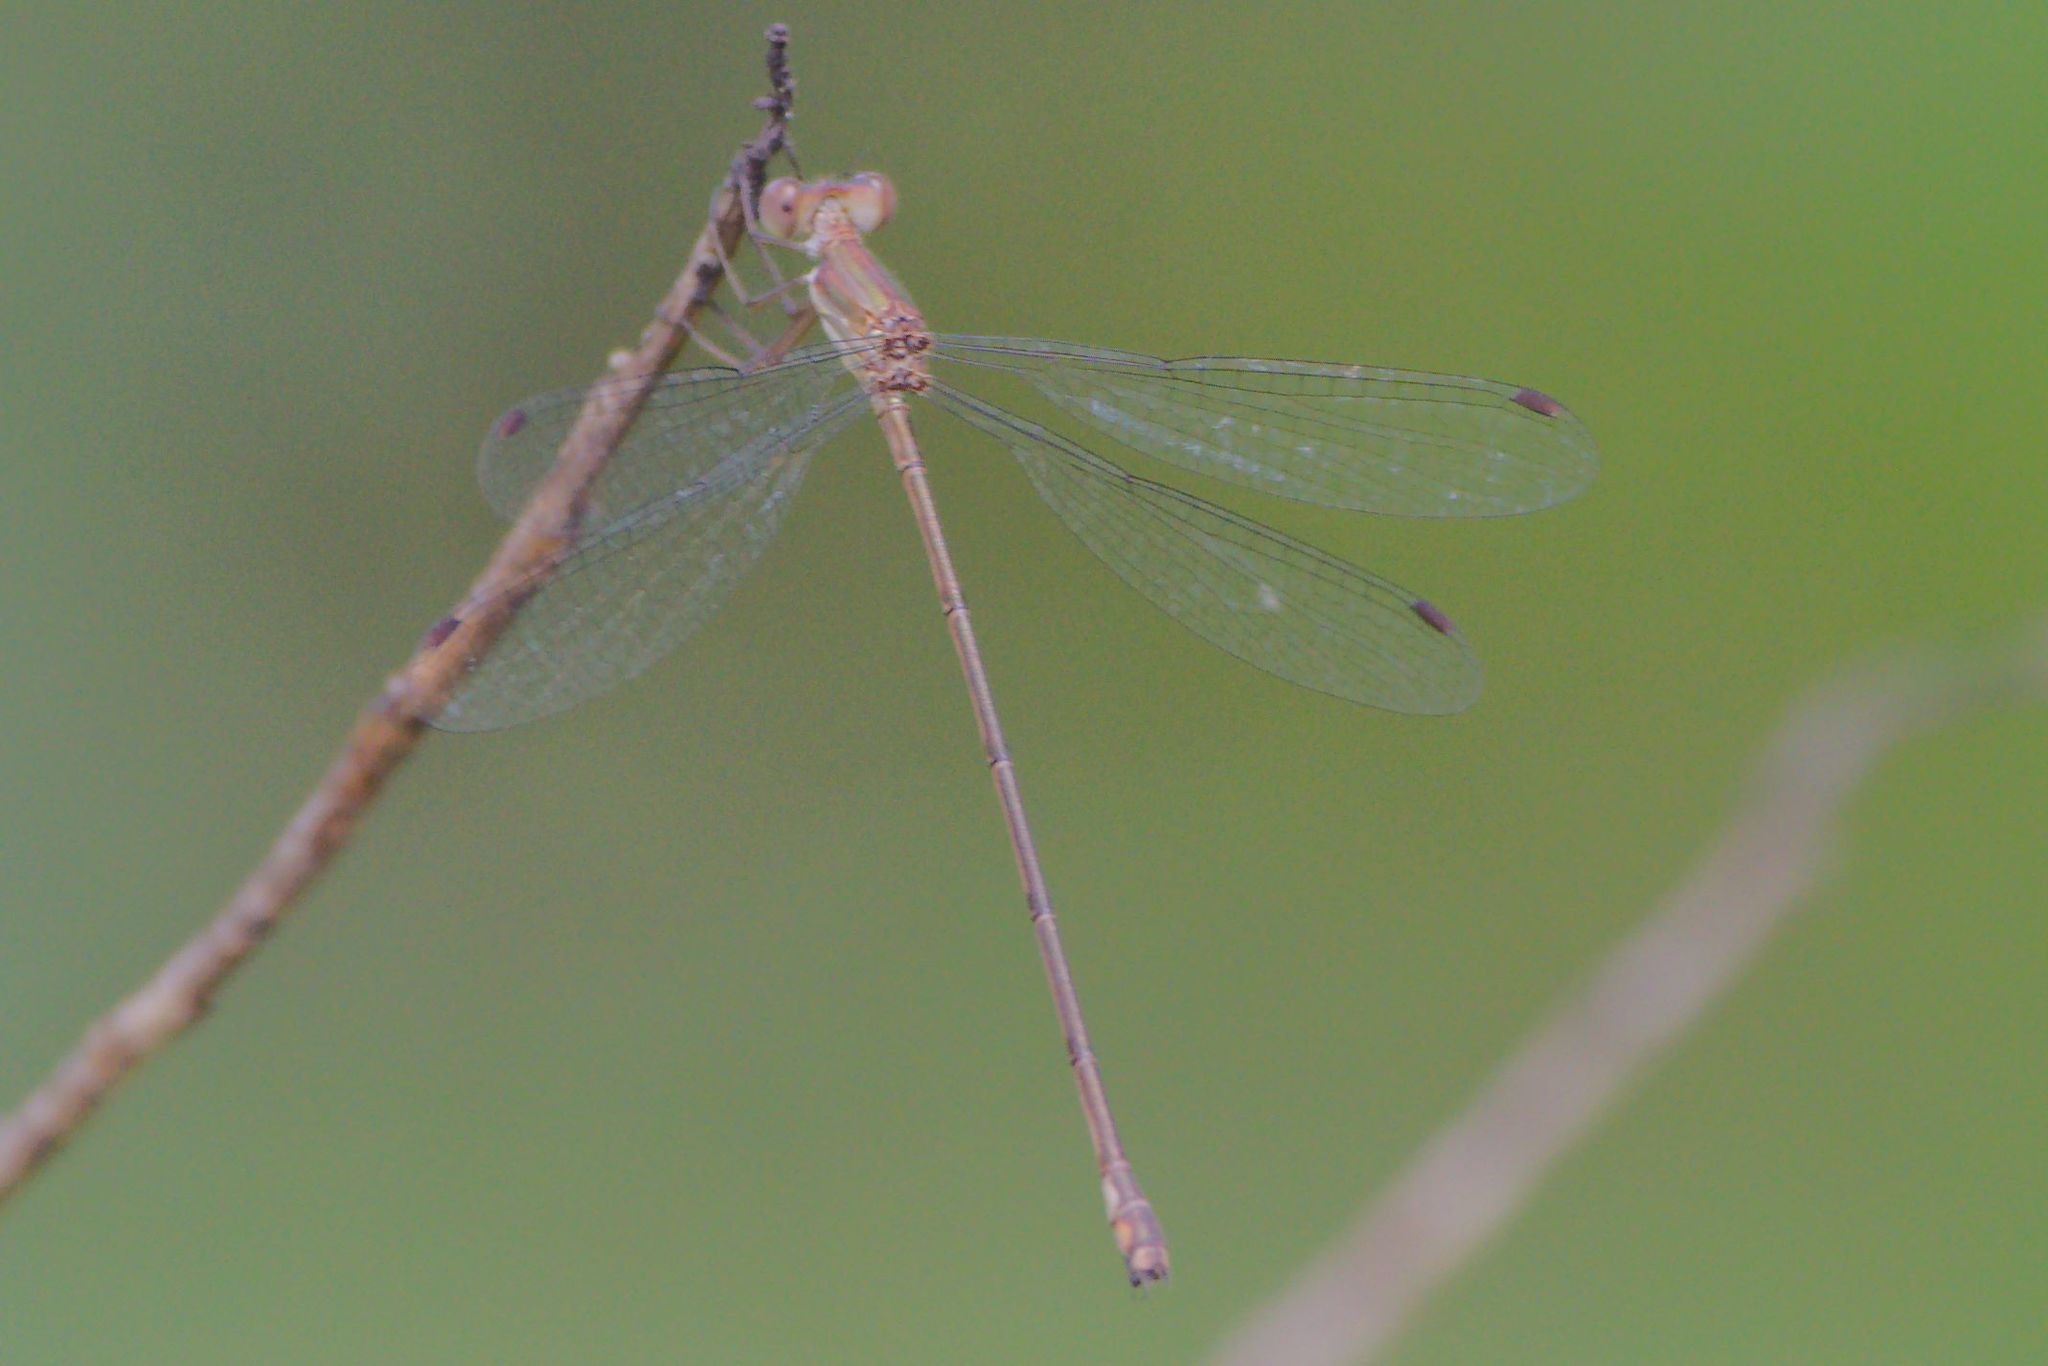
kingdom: Animalia
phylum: Arthropoda
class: Insecta
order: Odonata
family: Lestidae
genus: Lestes
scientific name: Lestes tenuatus
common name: Blue-striped spreadwing
